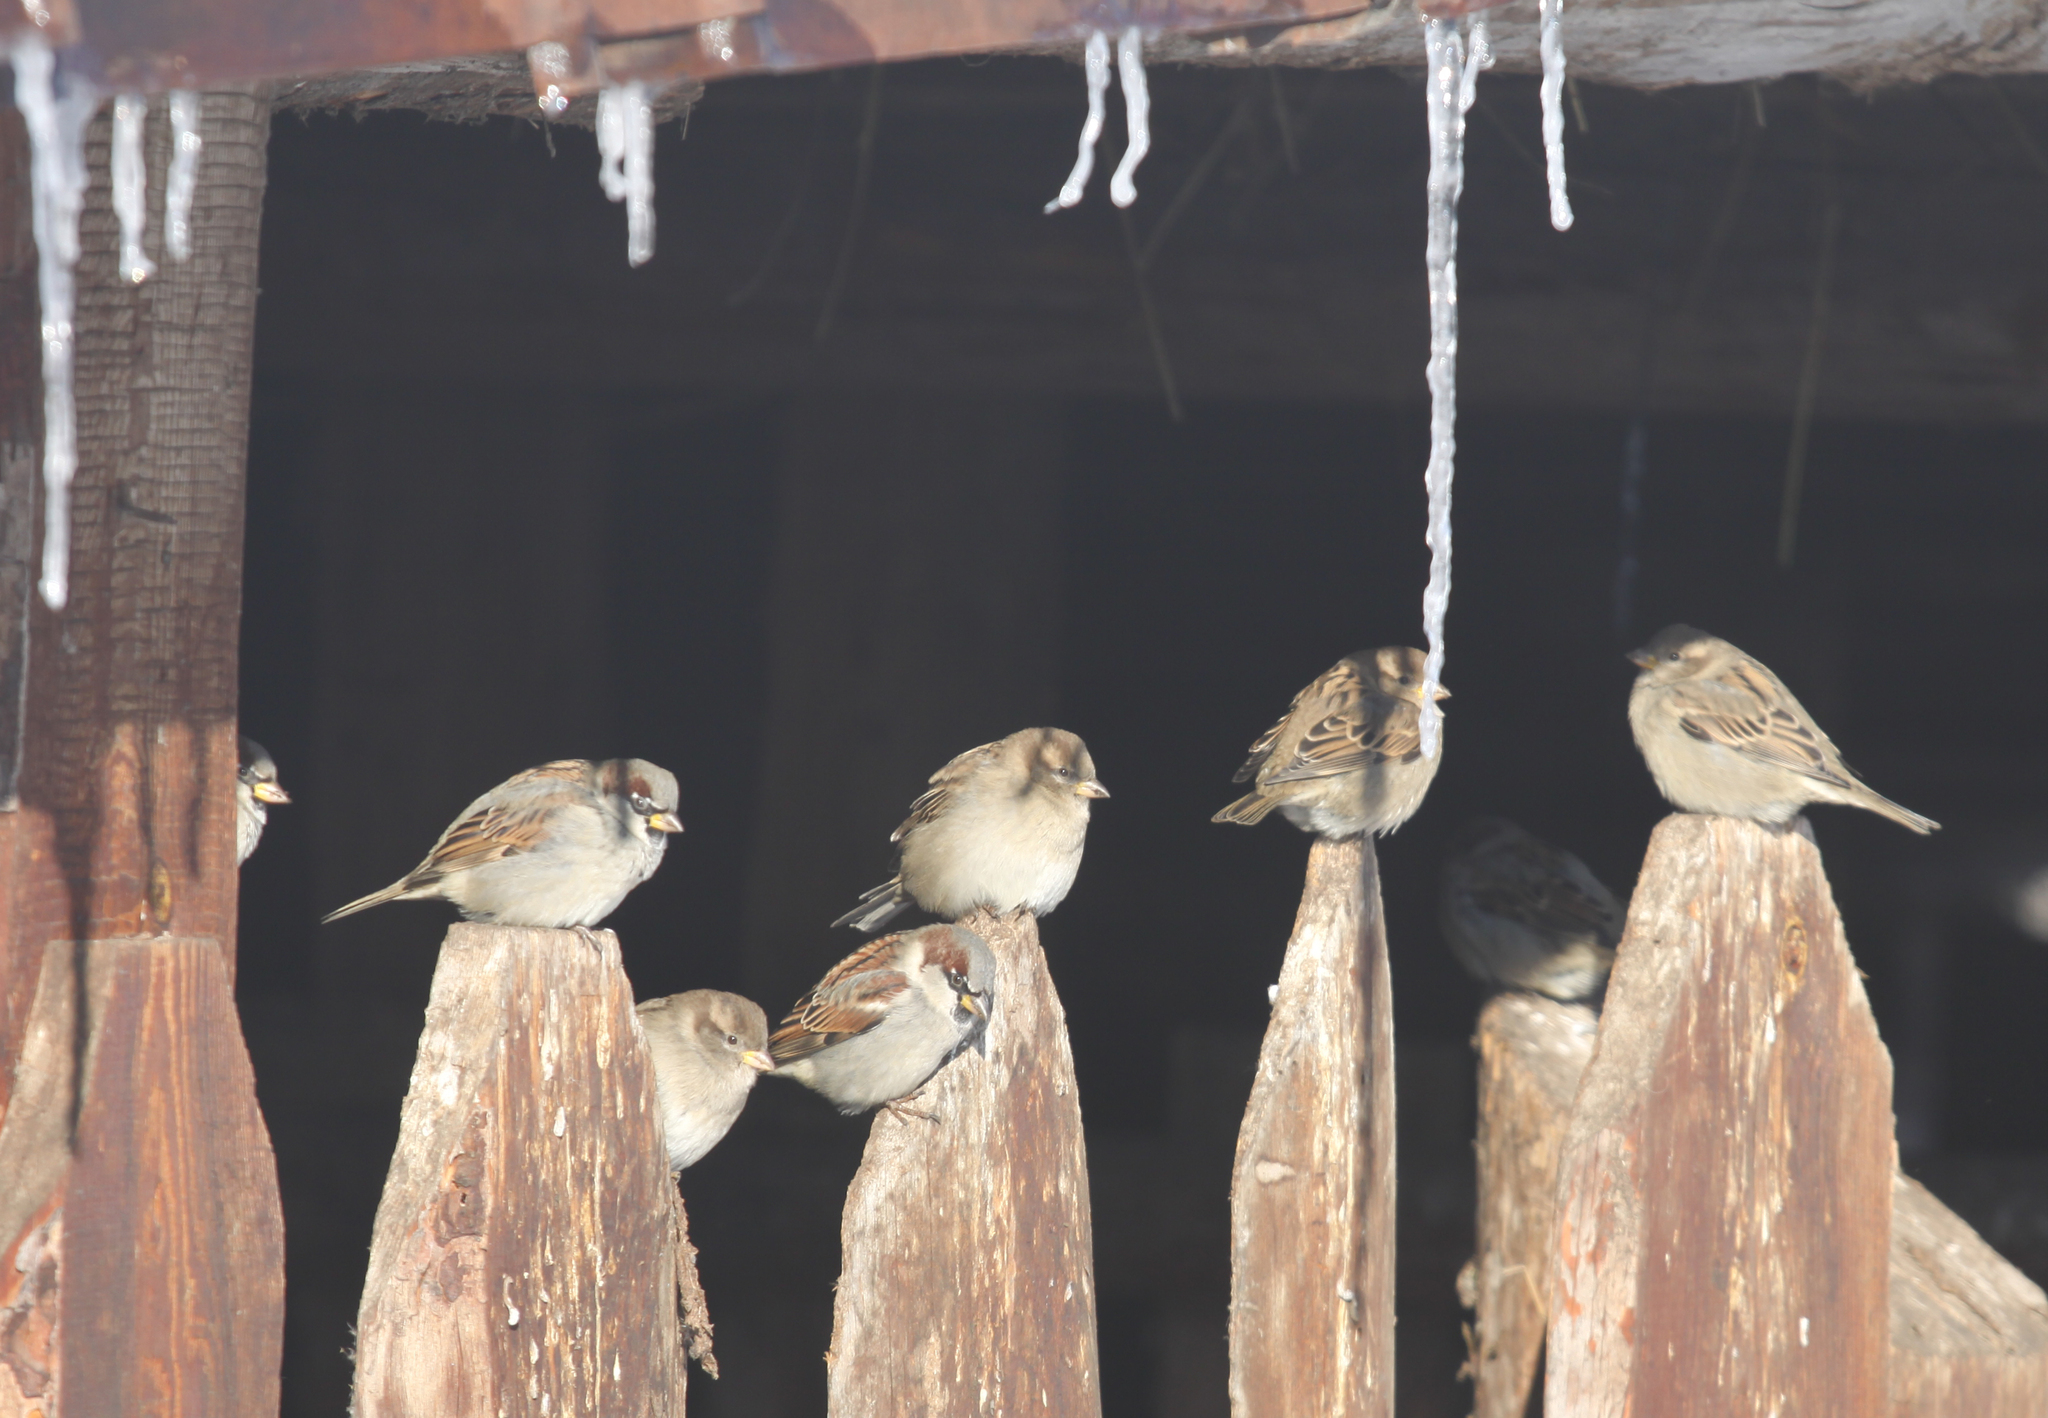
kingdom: Animalia
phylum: Chordata
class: Aves
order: Passeriformes
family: Passeridae
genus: Passer
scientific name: Passer domesticus
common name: House sparrow
